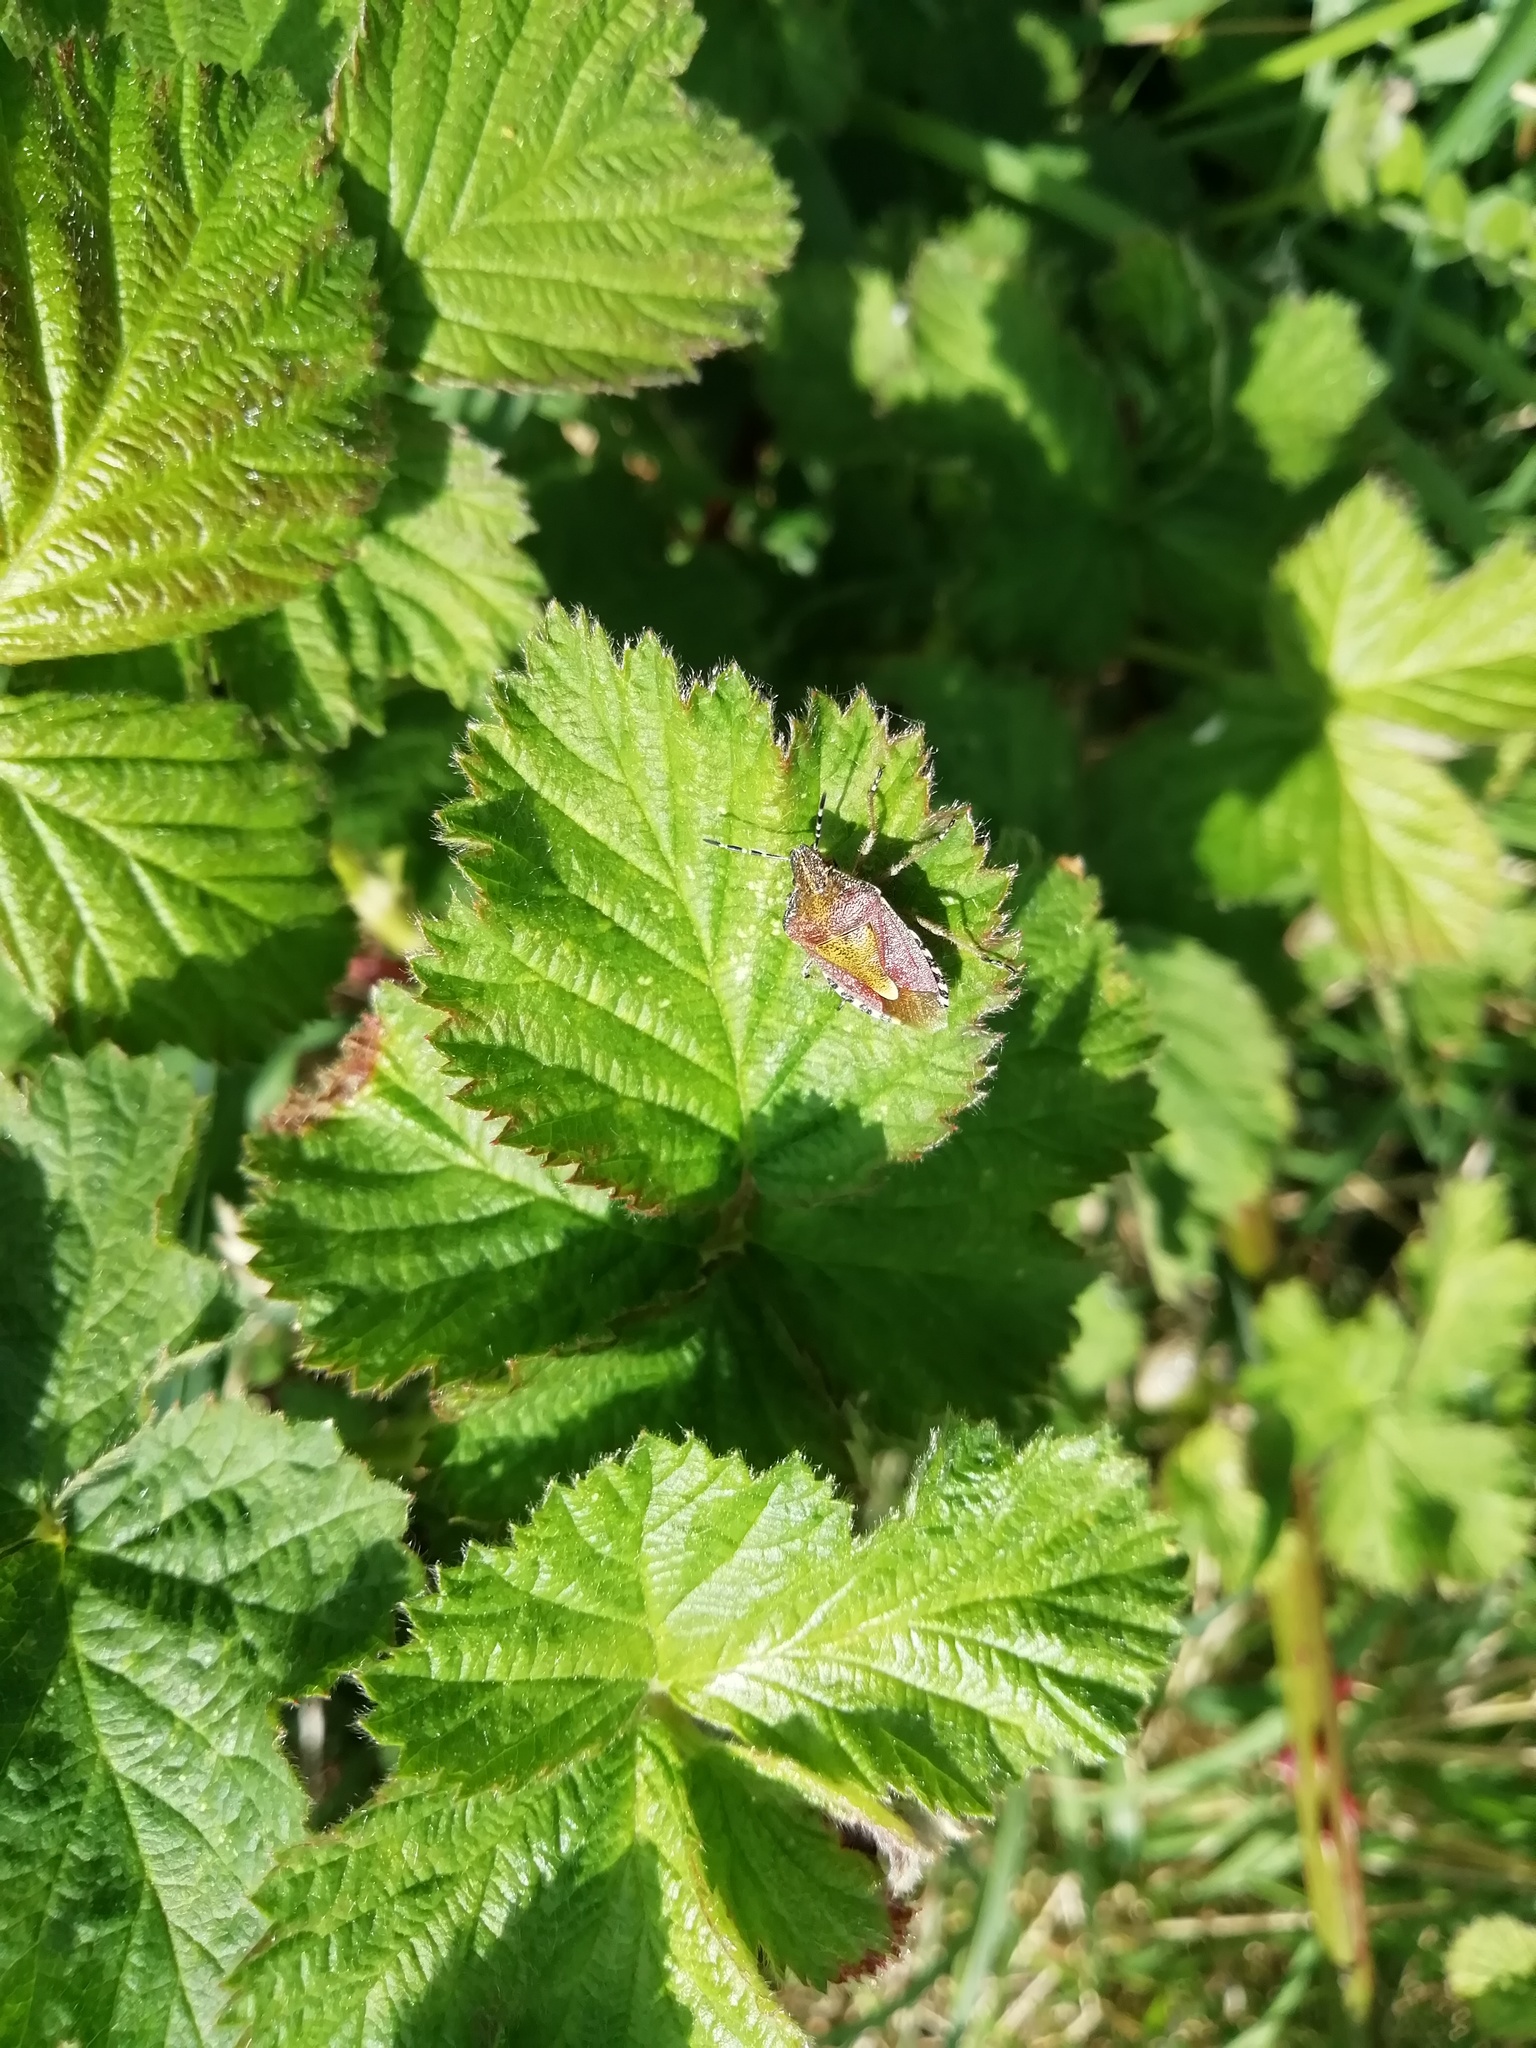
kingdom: Animalia
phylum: Arthropoda
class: Insecta
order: Hemiptera
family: Pentatomidae
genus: Dolycoris
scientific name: Dolycoris baccarum
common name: Sloe bug
